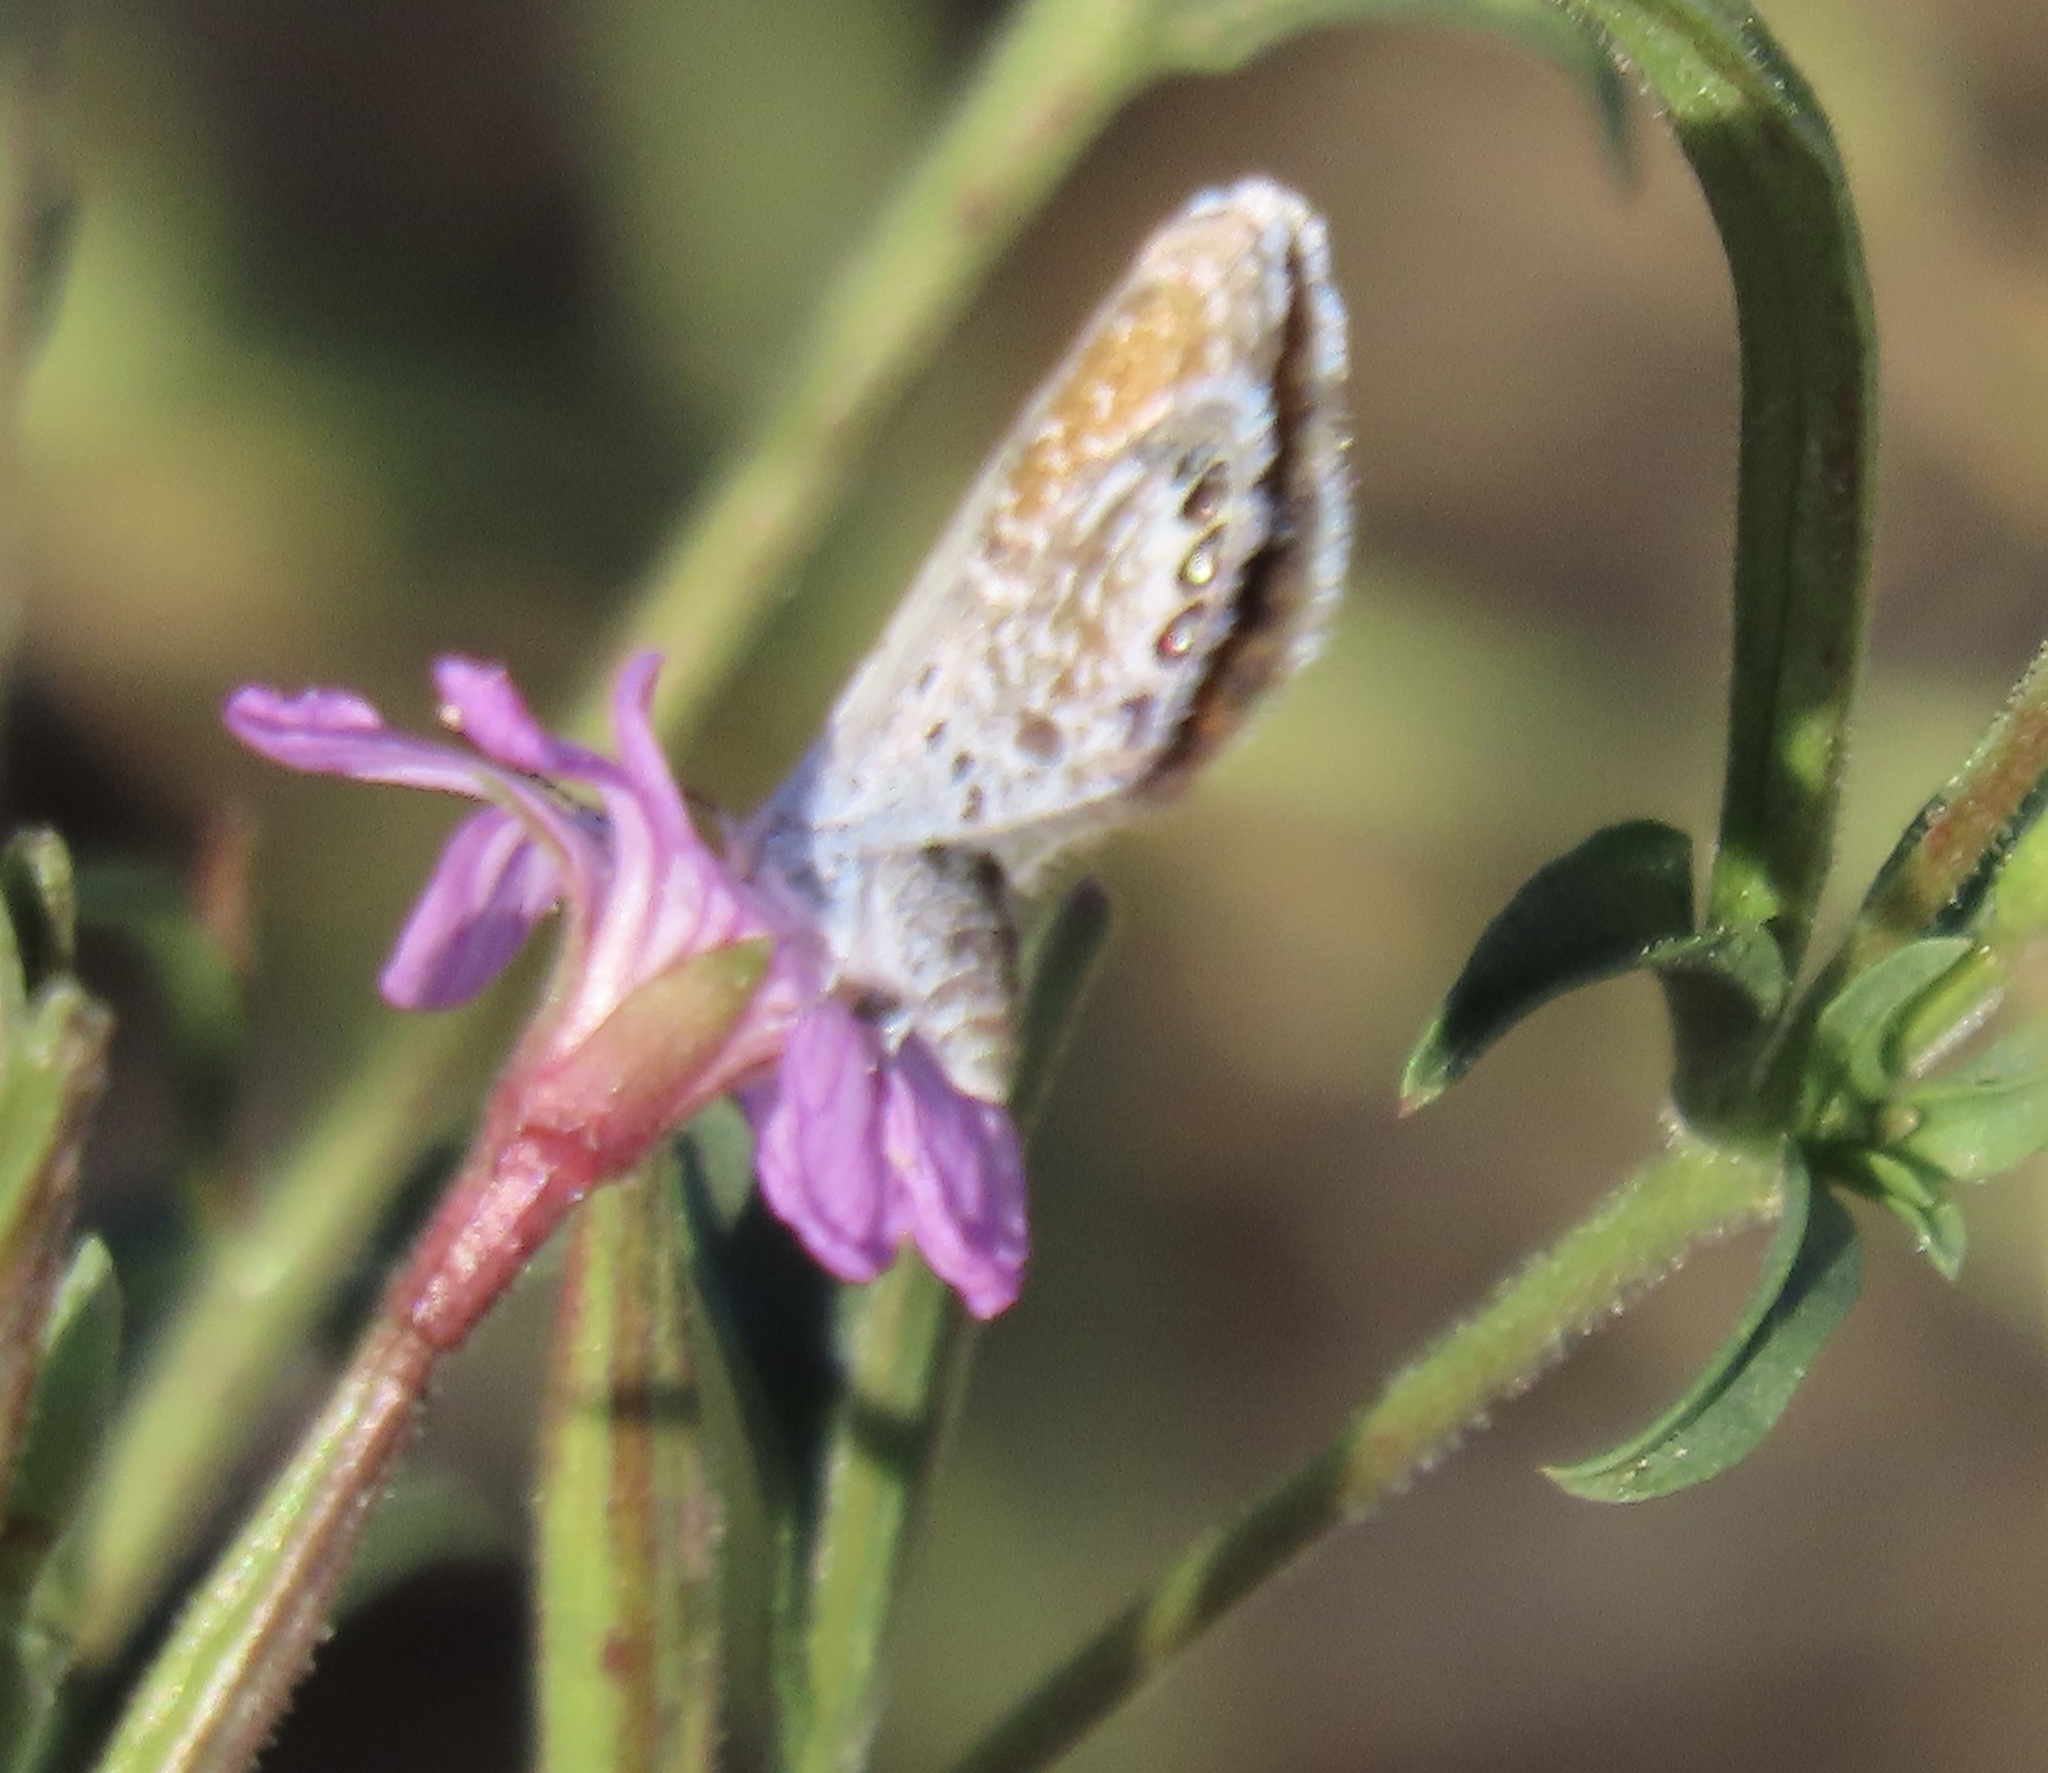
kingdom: Animalia
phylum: Arthropoda
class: Insecta
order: Lepidoptera
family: Lycaenidae
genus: Brephidium
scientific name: Brephidium exilis
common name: Pygmy blue
